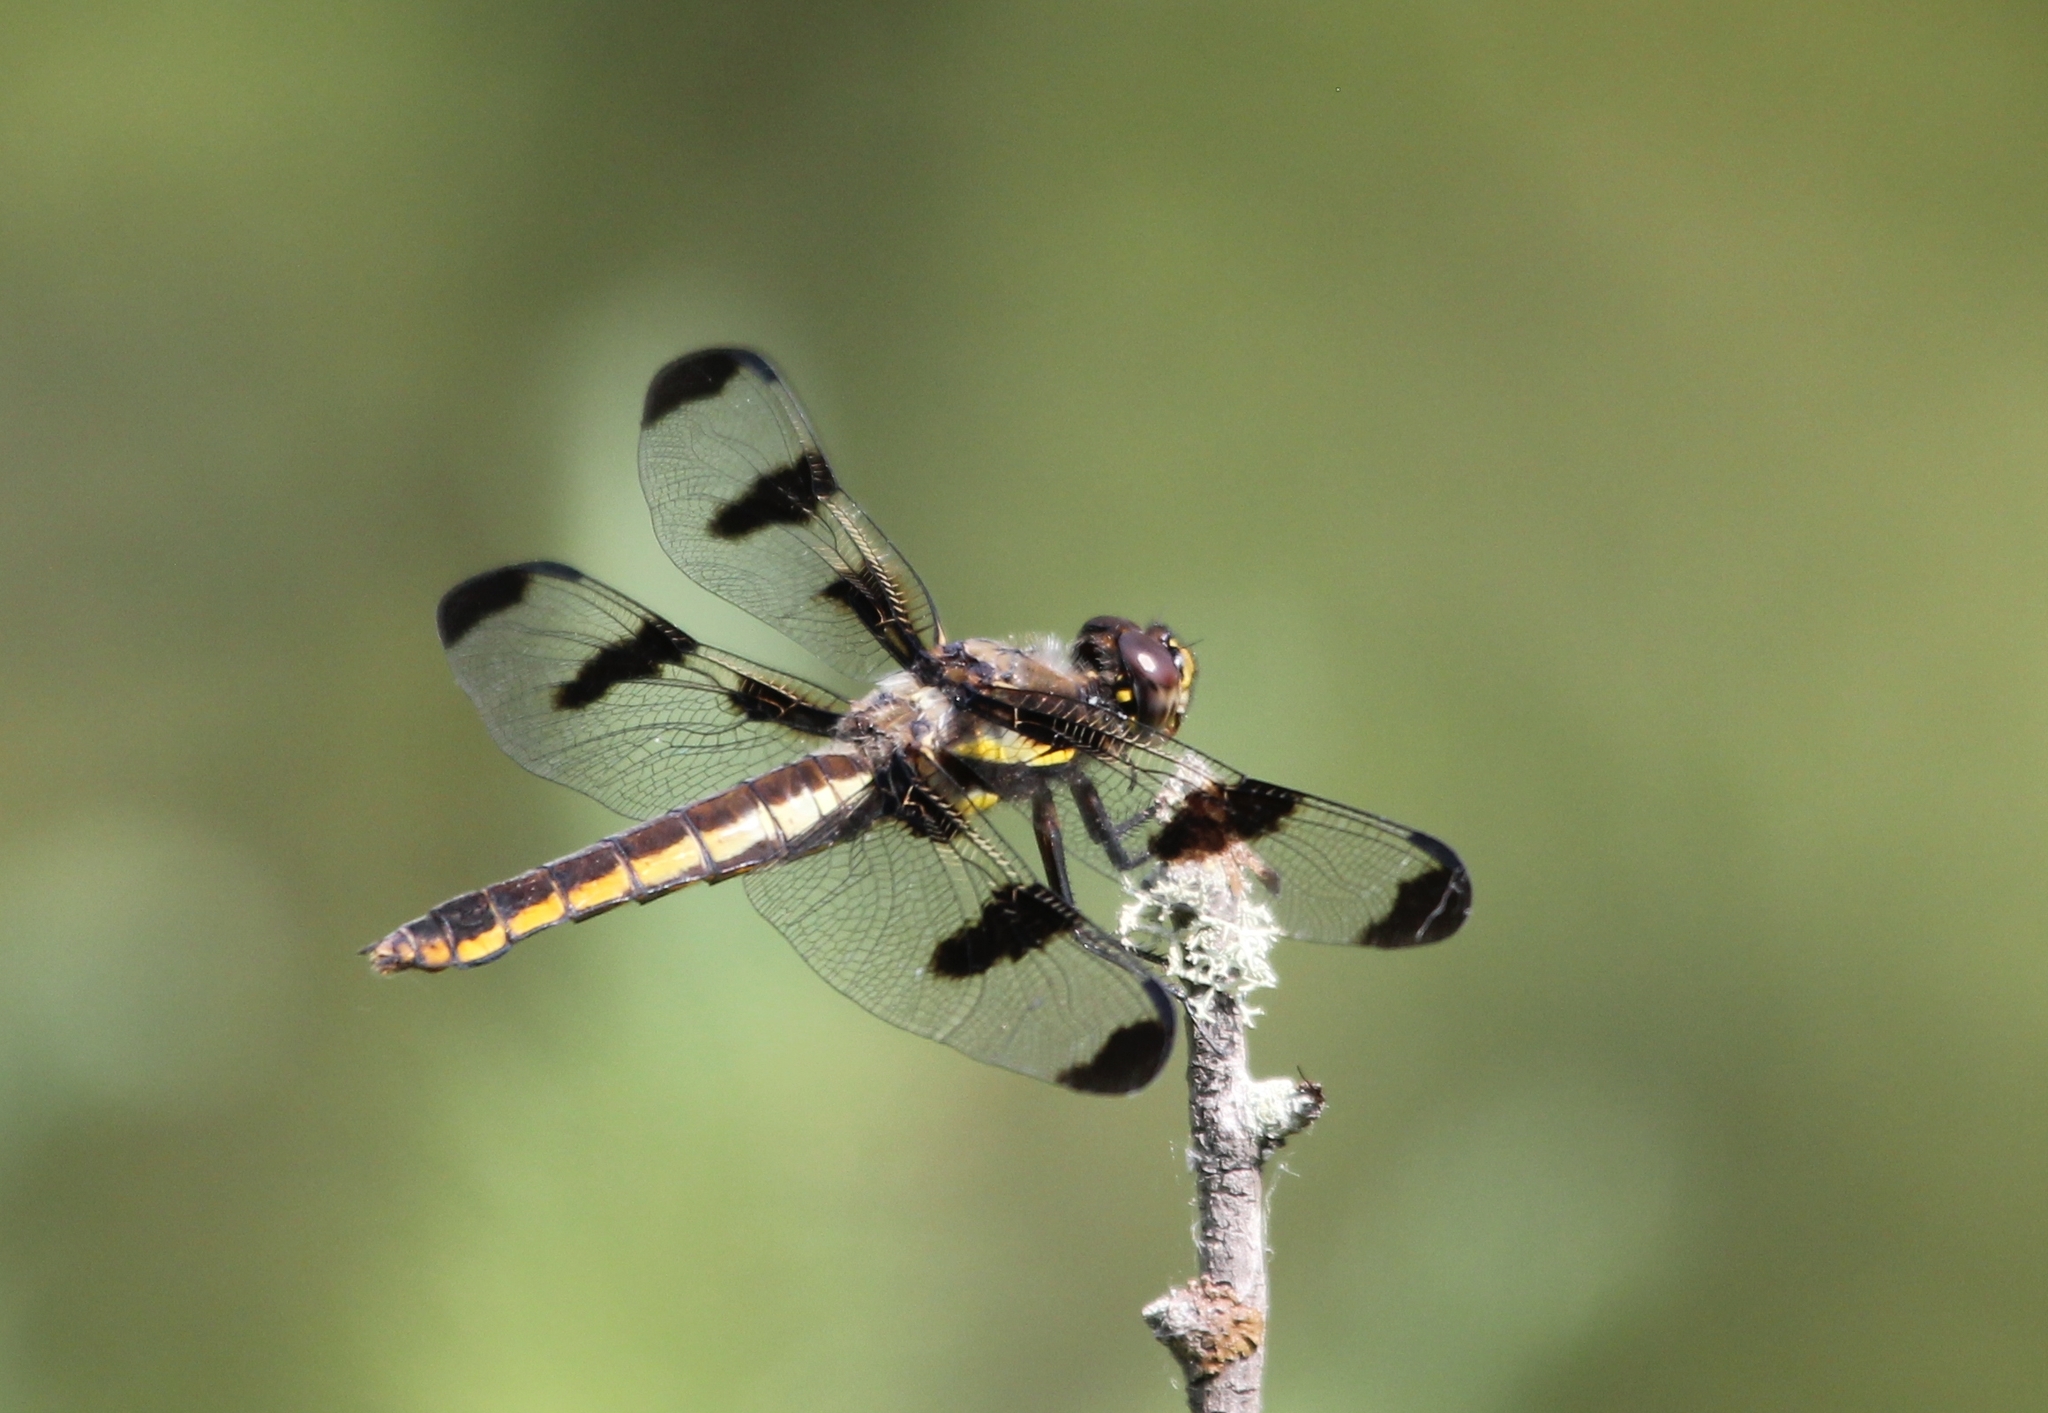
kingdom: Animalia
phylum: Arthropoda
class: Insecta
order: Odonata
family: Libellulidae
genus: Libellula
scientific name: Libellula pulchella
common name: Twelve-spotted skimmer
